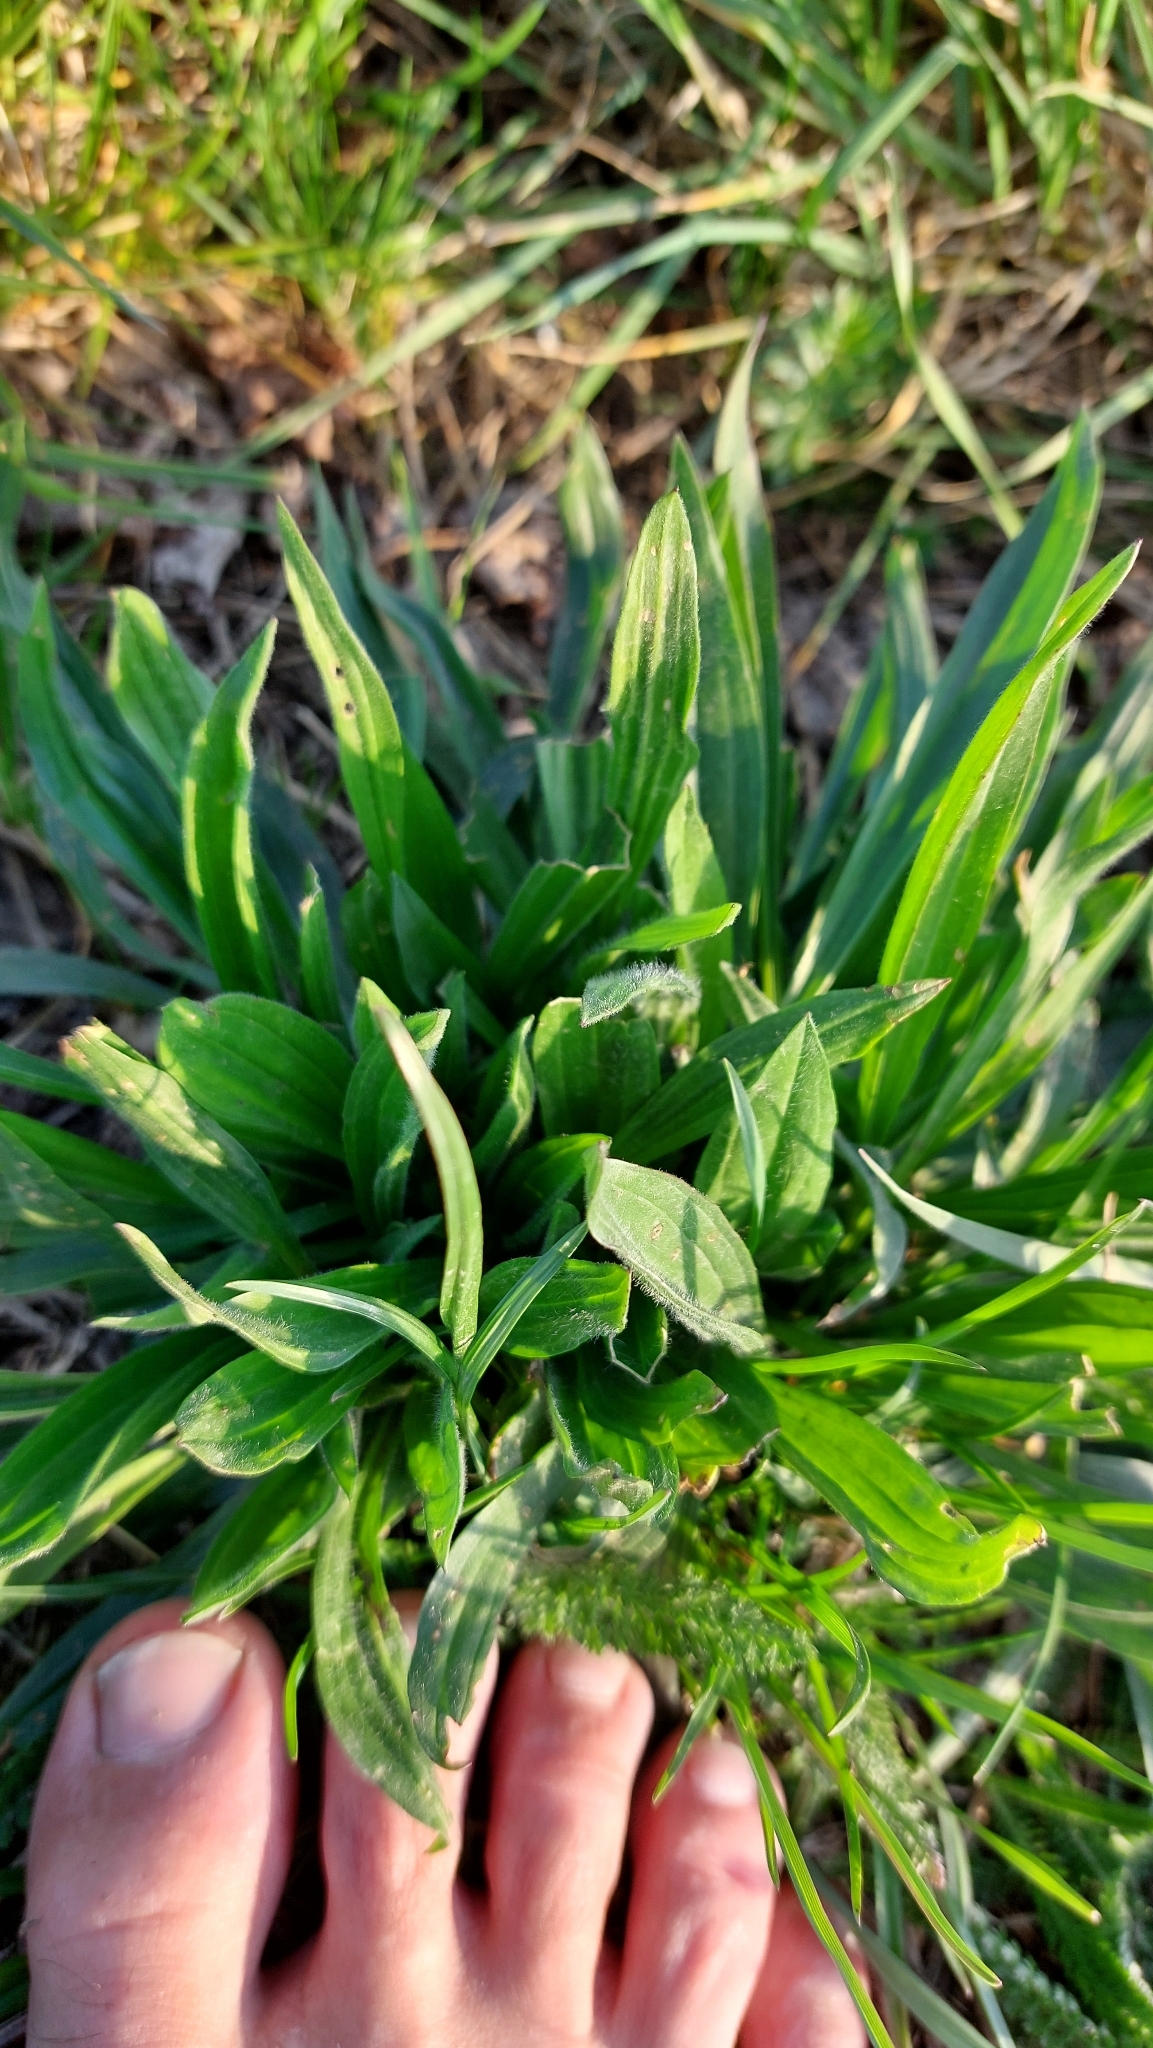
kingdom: Plantae
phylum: Tracheophyta
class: Magnoliopsida
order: Lamiales
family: Plantaginaceae
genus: Plantago
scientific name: Plantago lanceolata
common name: Ribwort plantain
